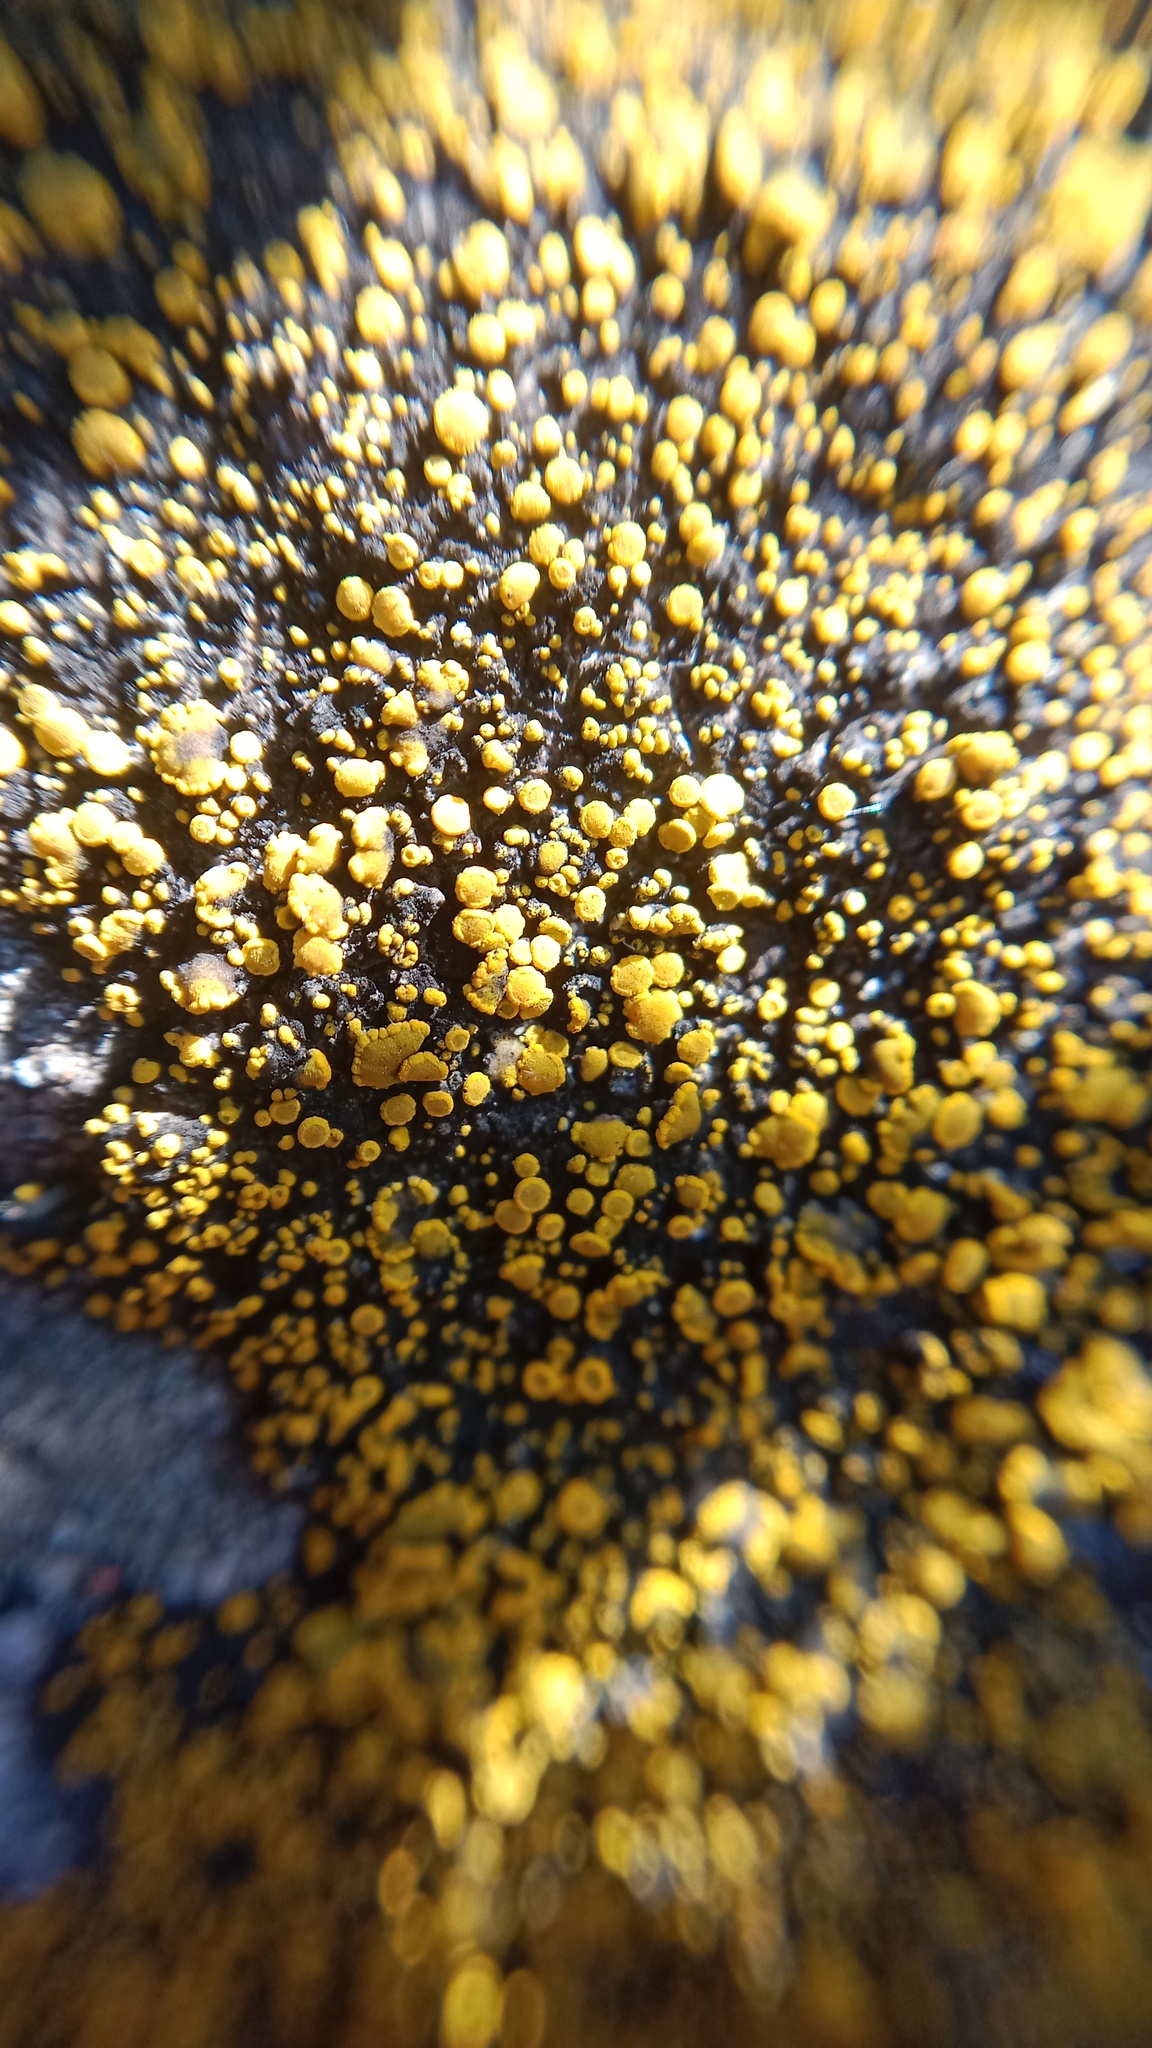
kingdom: Fungi
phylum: Ascomycota
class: Candelariomycetes
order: Candelariales
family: Candelariaceae
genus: Candelariella
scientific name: Candelariella rosulans
